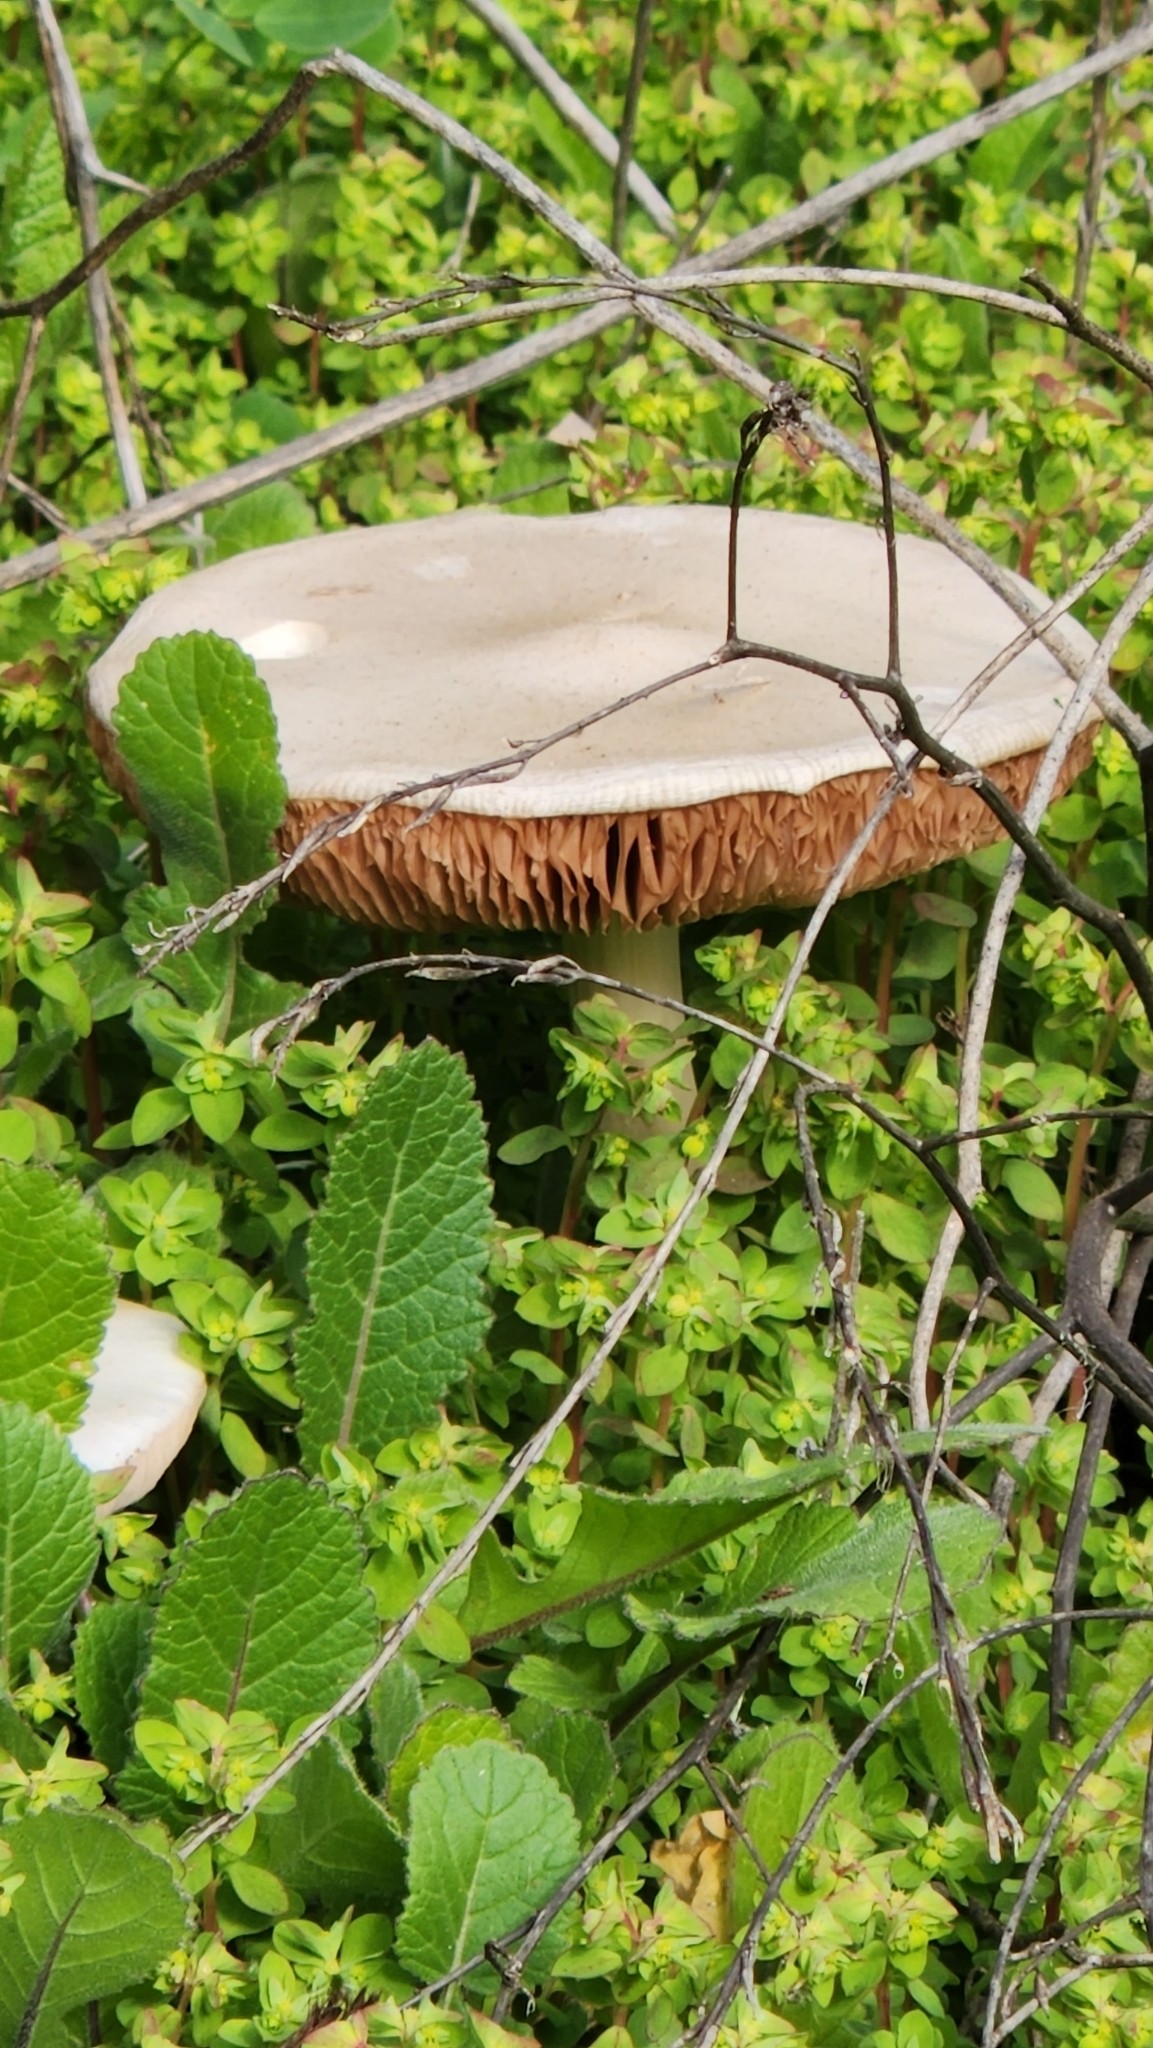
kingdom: Fungi
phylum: Basidiomycota
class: Agaricomycetes
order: Agaricales
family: Pluteaceae
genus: Volvopluteus
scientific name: Volvopluteus gloiocephalus
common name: Stubble rosegill
